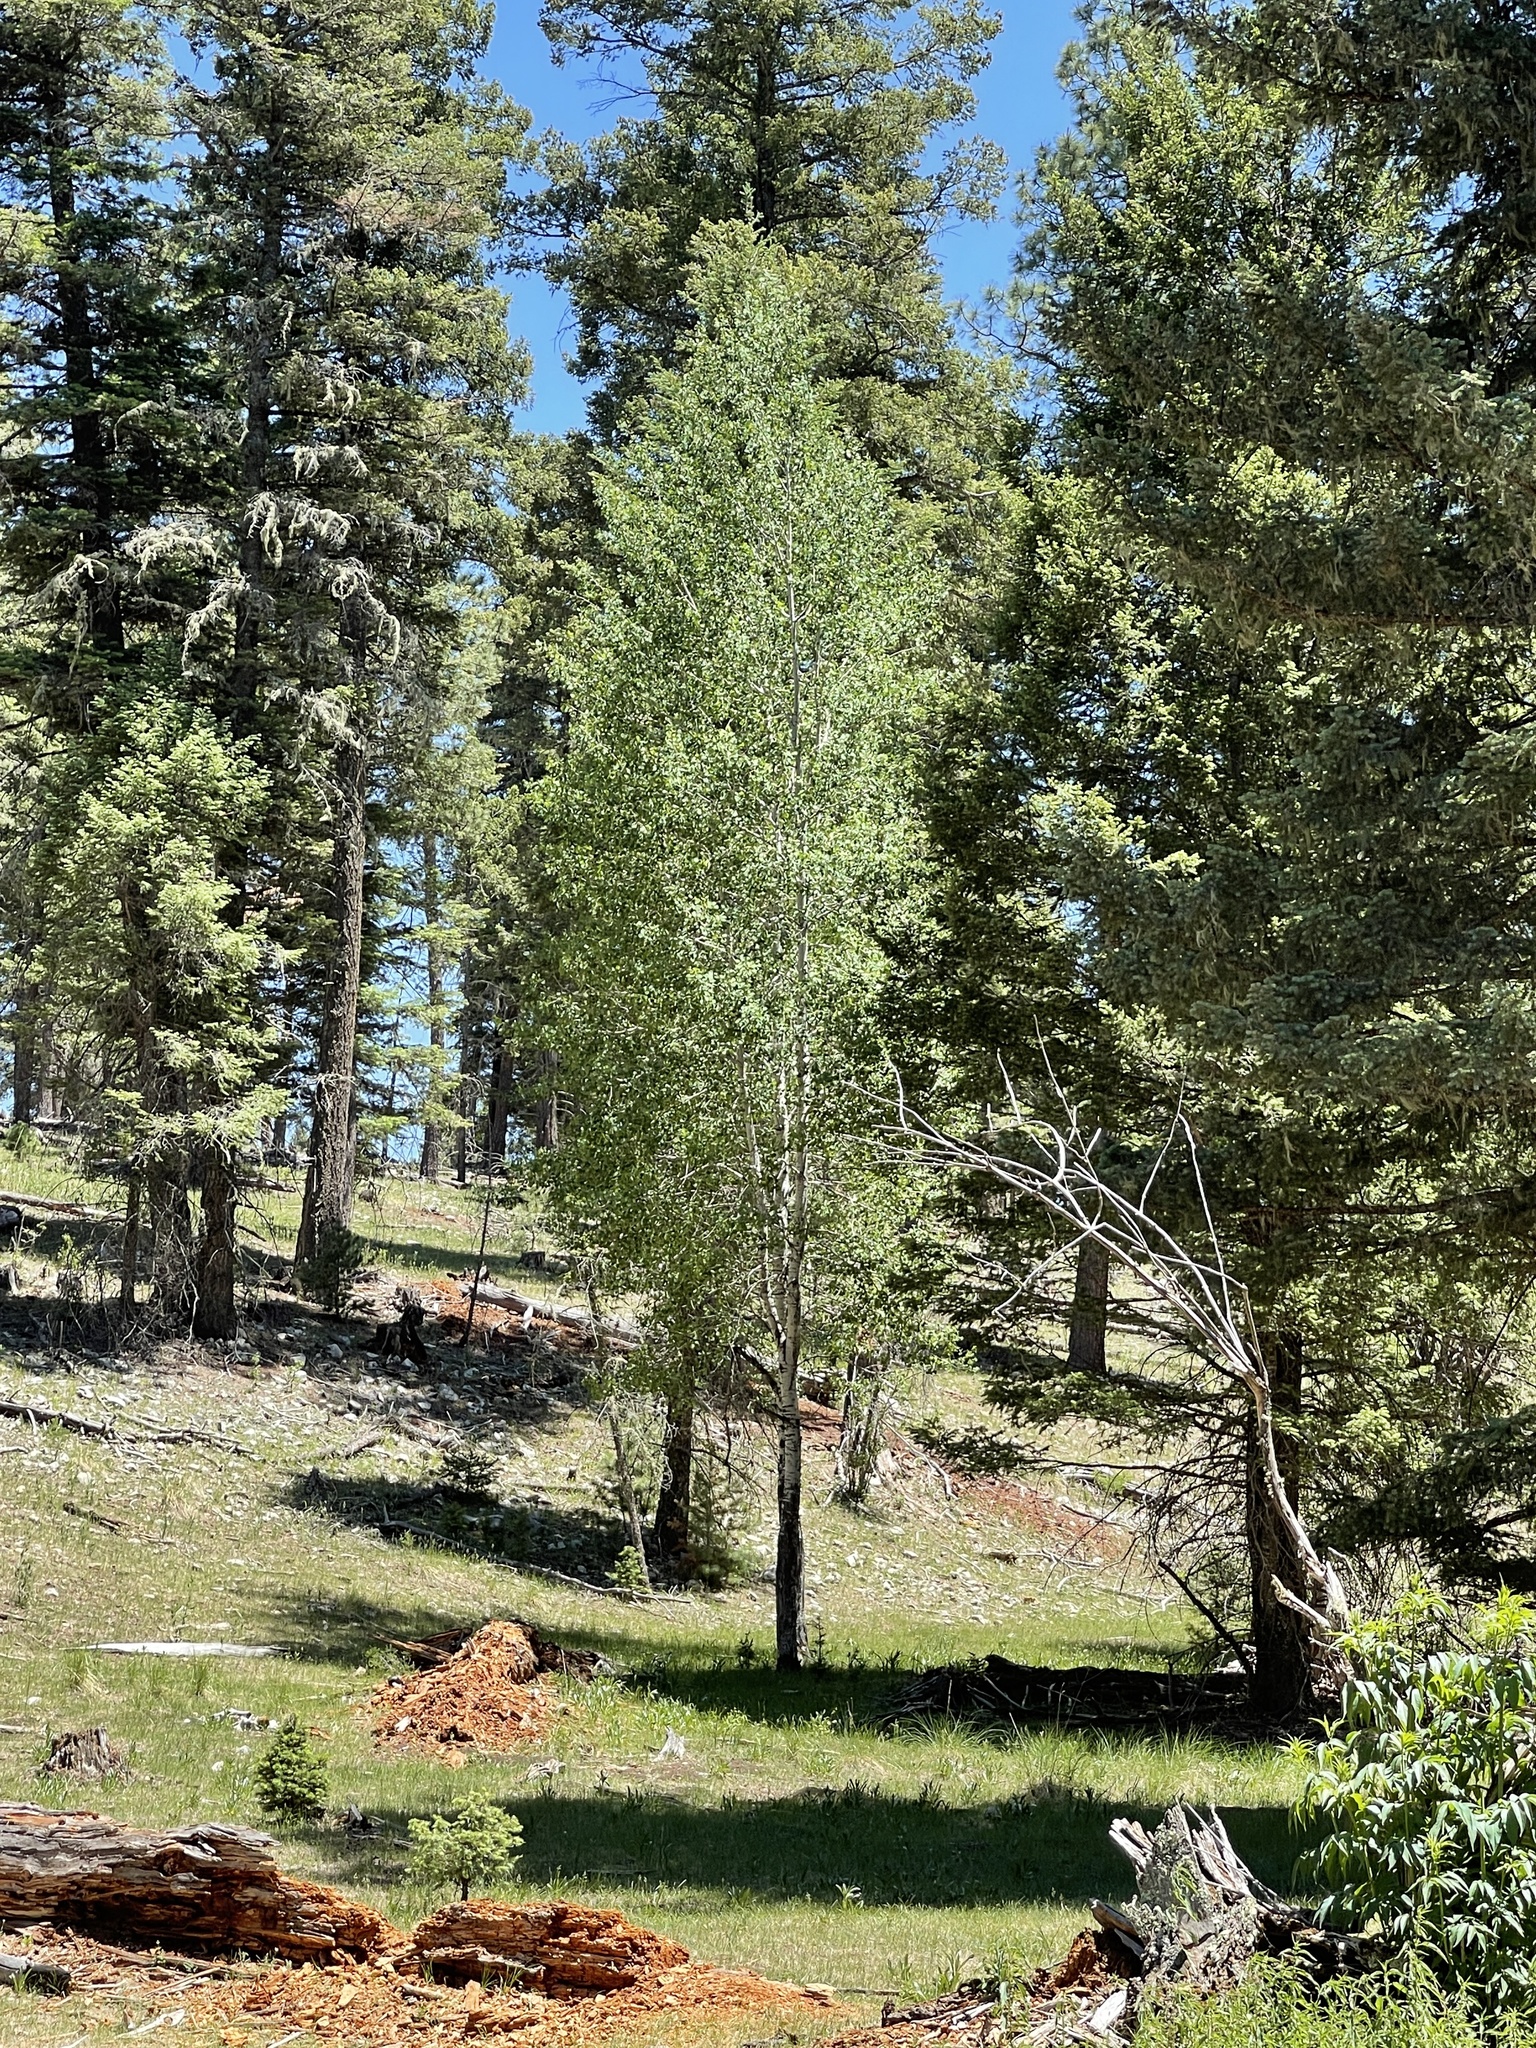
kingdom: Plantae
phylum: Tracheophyta
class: Magnoliopsida
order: Malpighiales
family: Salicaceae
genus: Populus
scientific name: Populus tremuloides
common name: Quaking aspen
